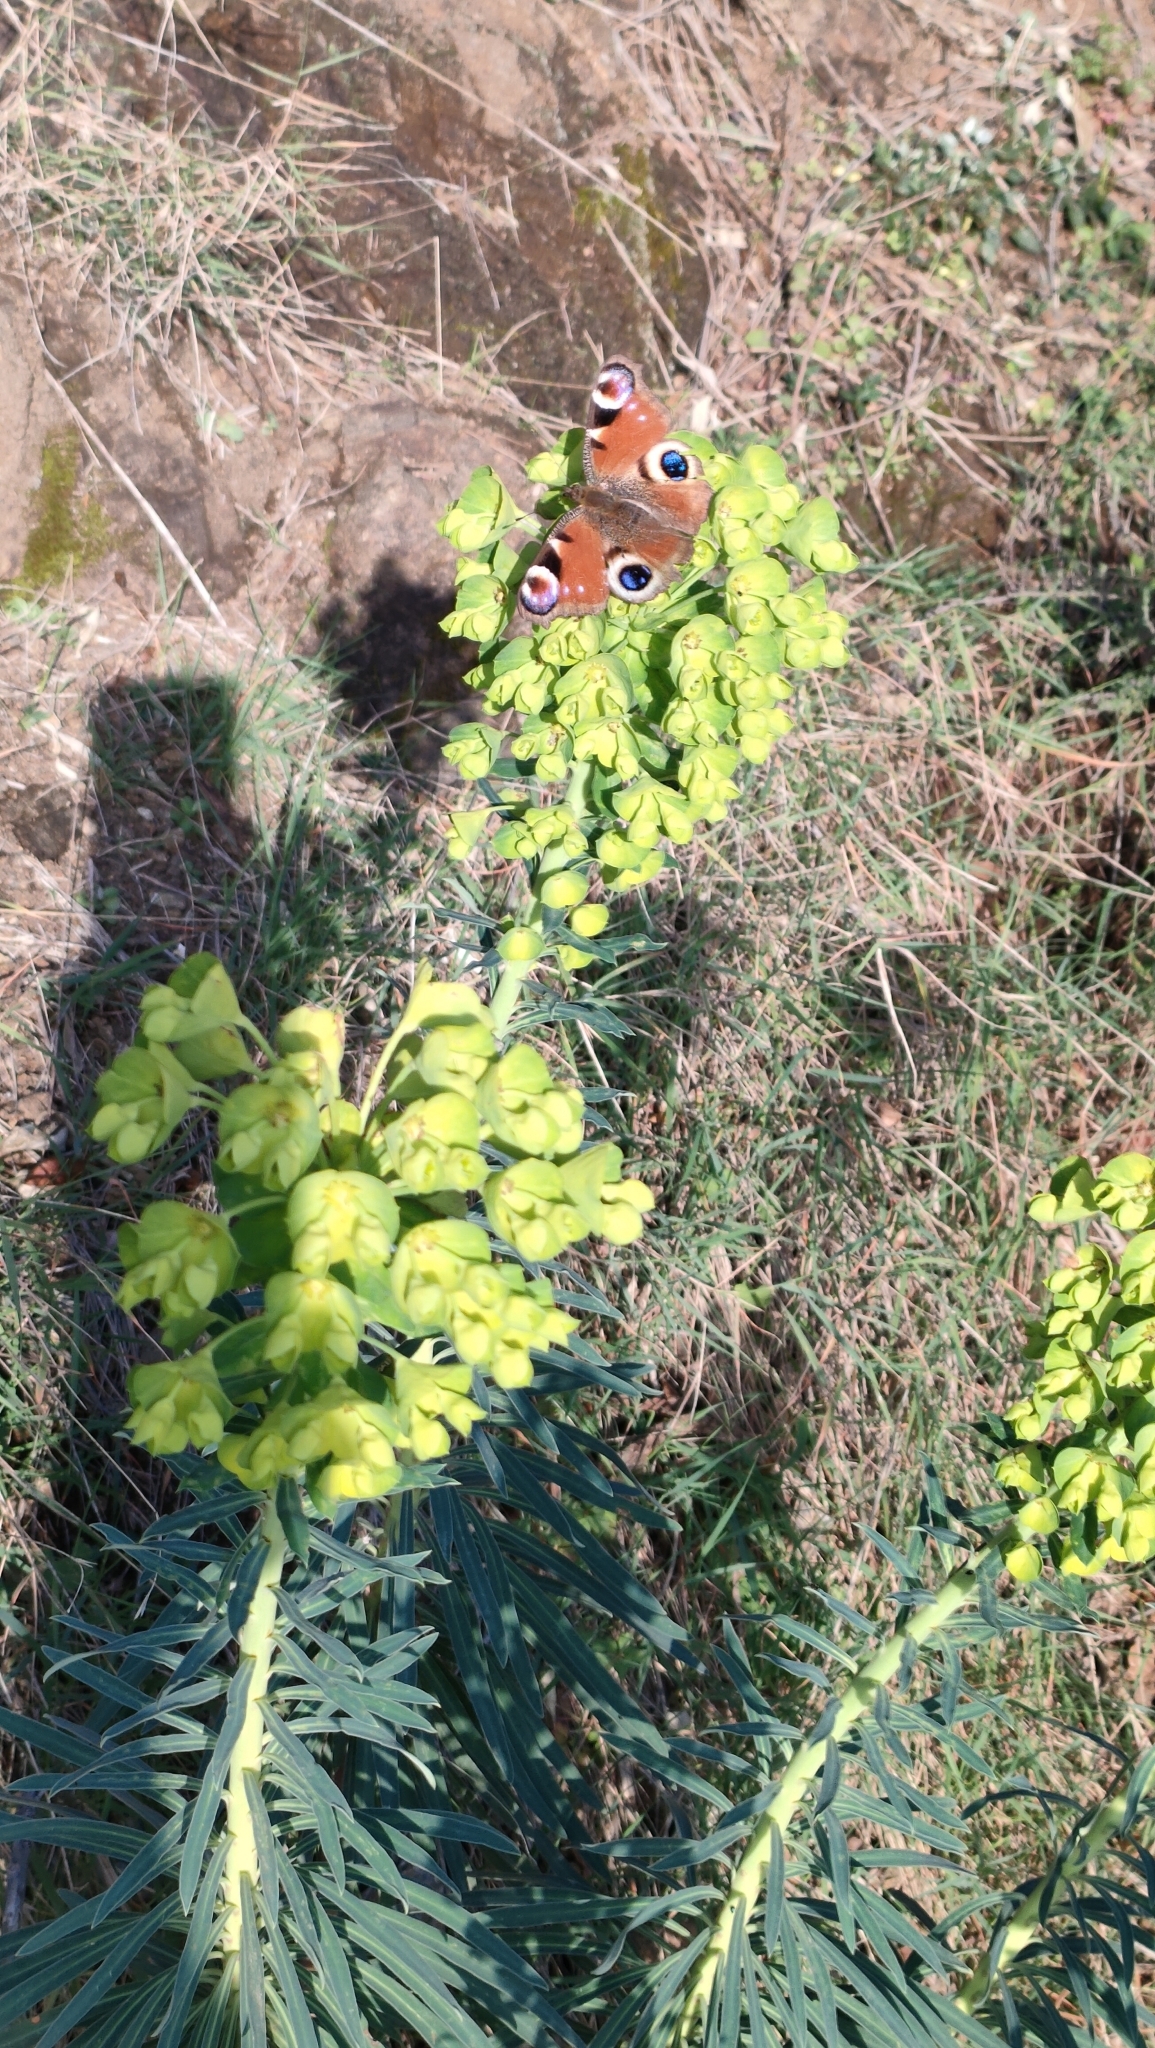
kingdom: Animalia
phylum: Arthropoda
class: Insecta
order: Lepidoptera
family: Nymphalidae
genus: Aglais
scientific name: Aglais io
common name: Peacock
